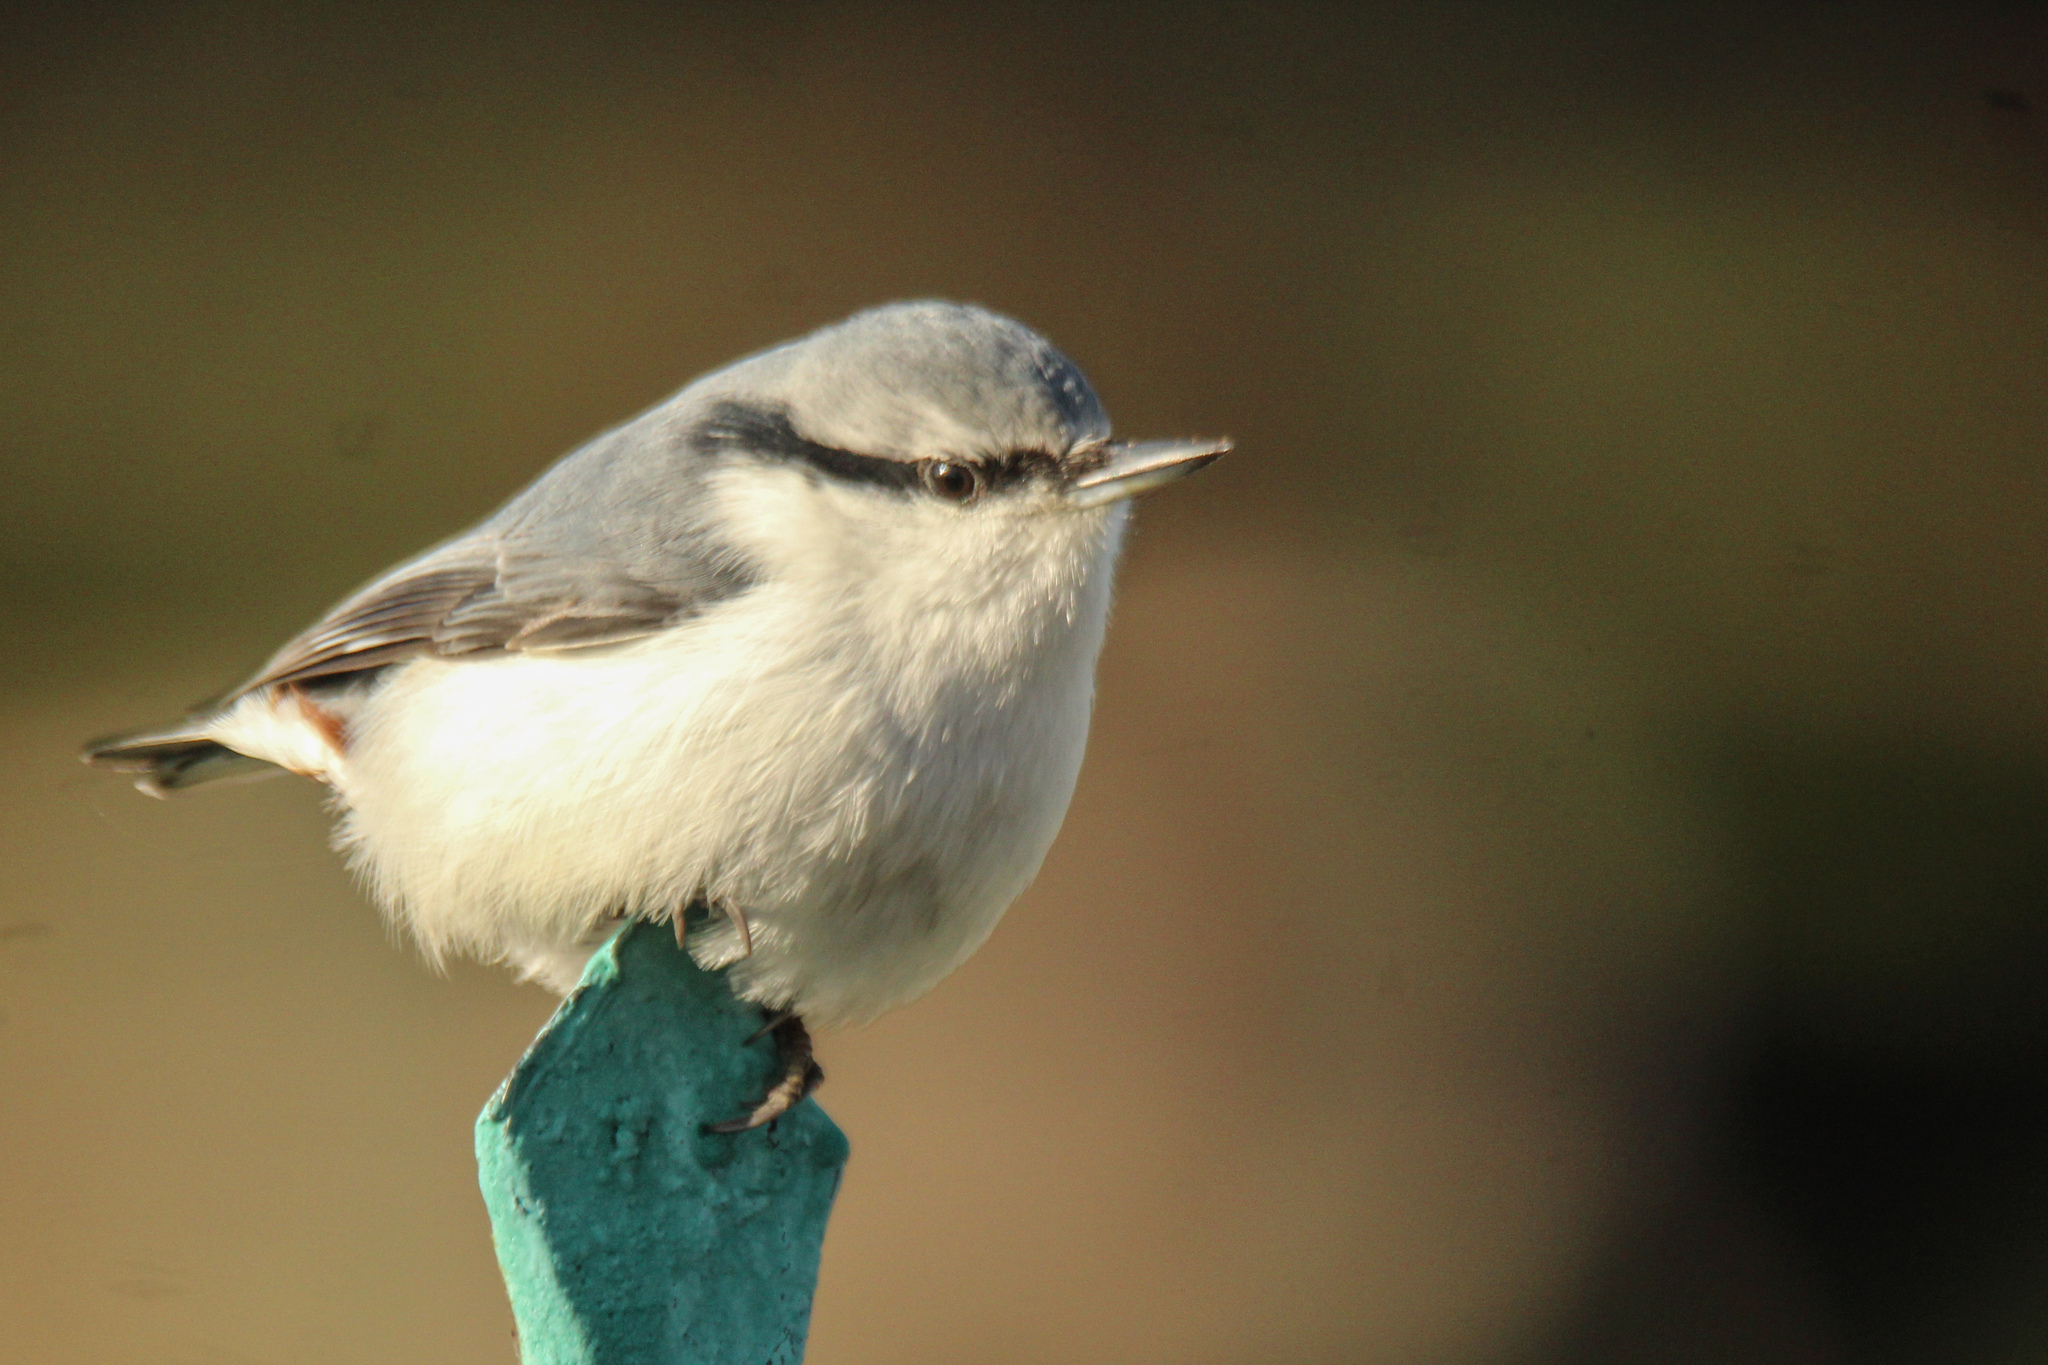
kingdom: Animalia
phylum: Chordata
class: Aves
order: Passeriformes
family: Sittidae
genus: Sitta
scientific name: Sitta europaea
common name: Eurasian nuthatch
